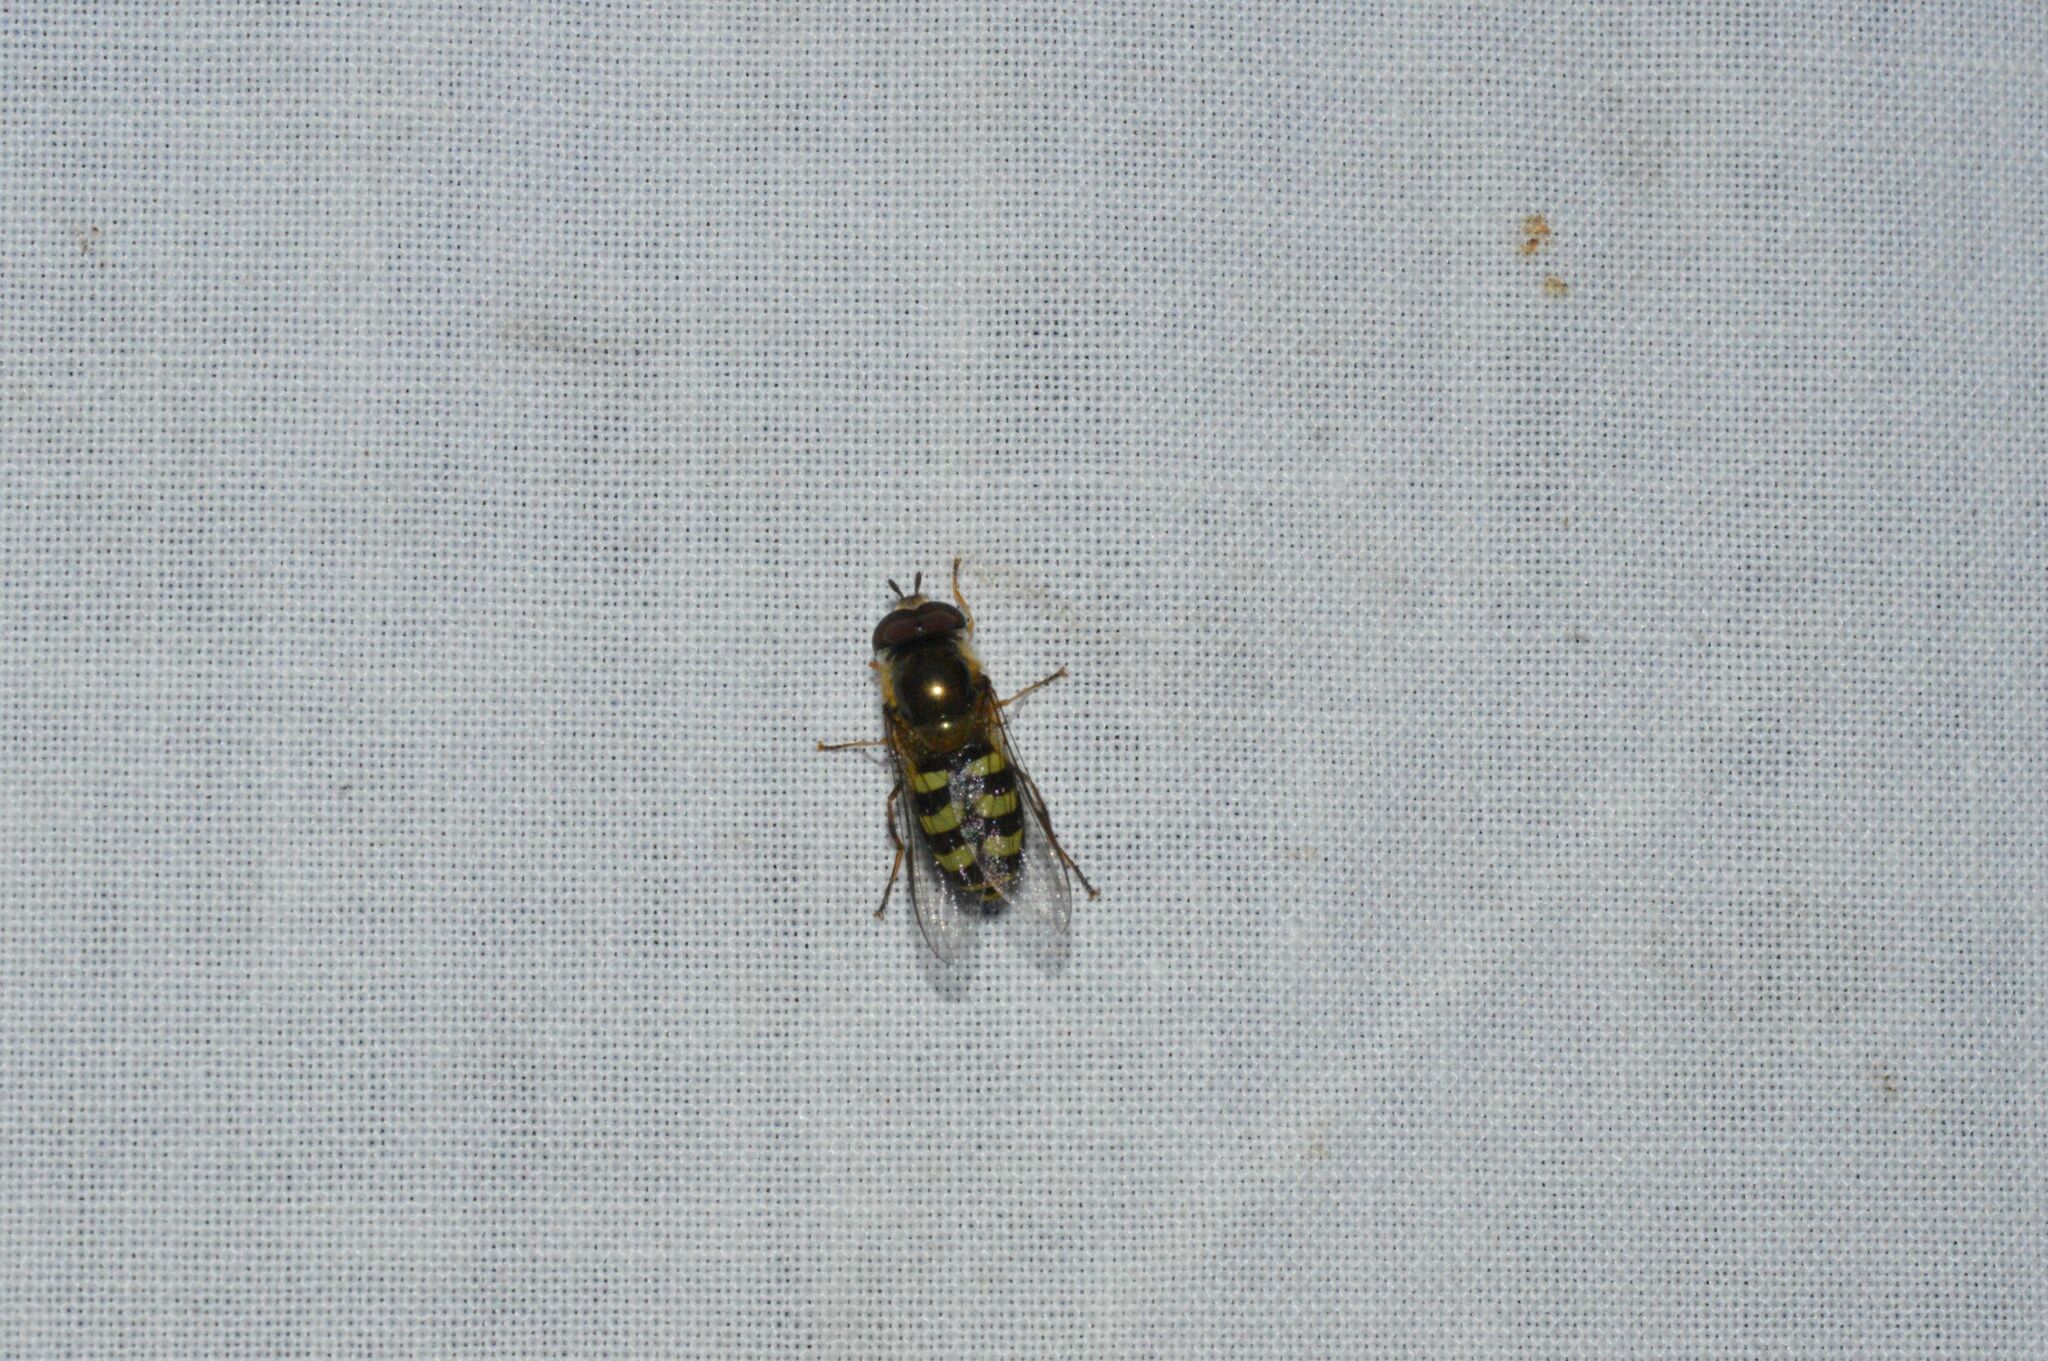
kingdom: Animalia
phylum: Arthropoda
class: Insecta
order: Diptera
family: Syrphidae
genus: Lapposyrphus
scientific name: Lapposyrphus lapponicus
